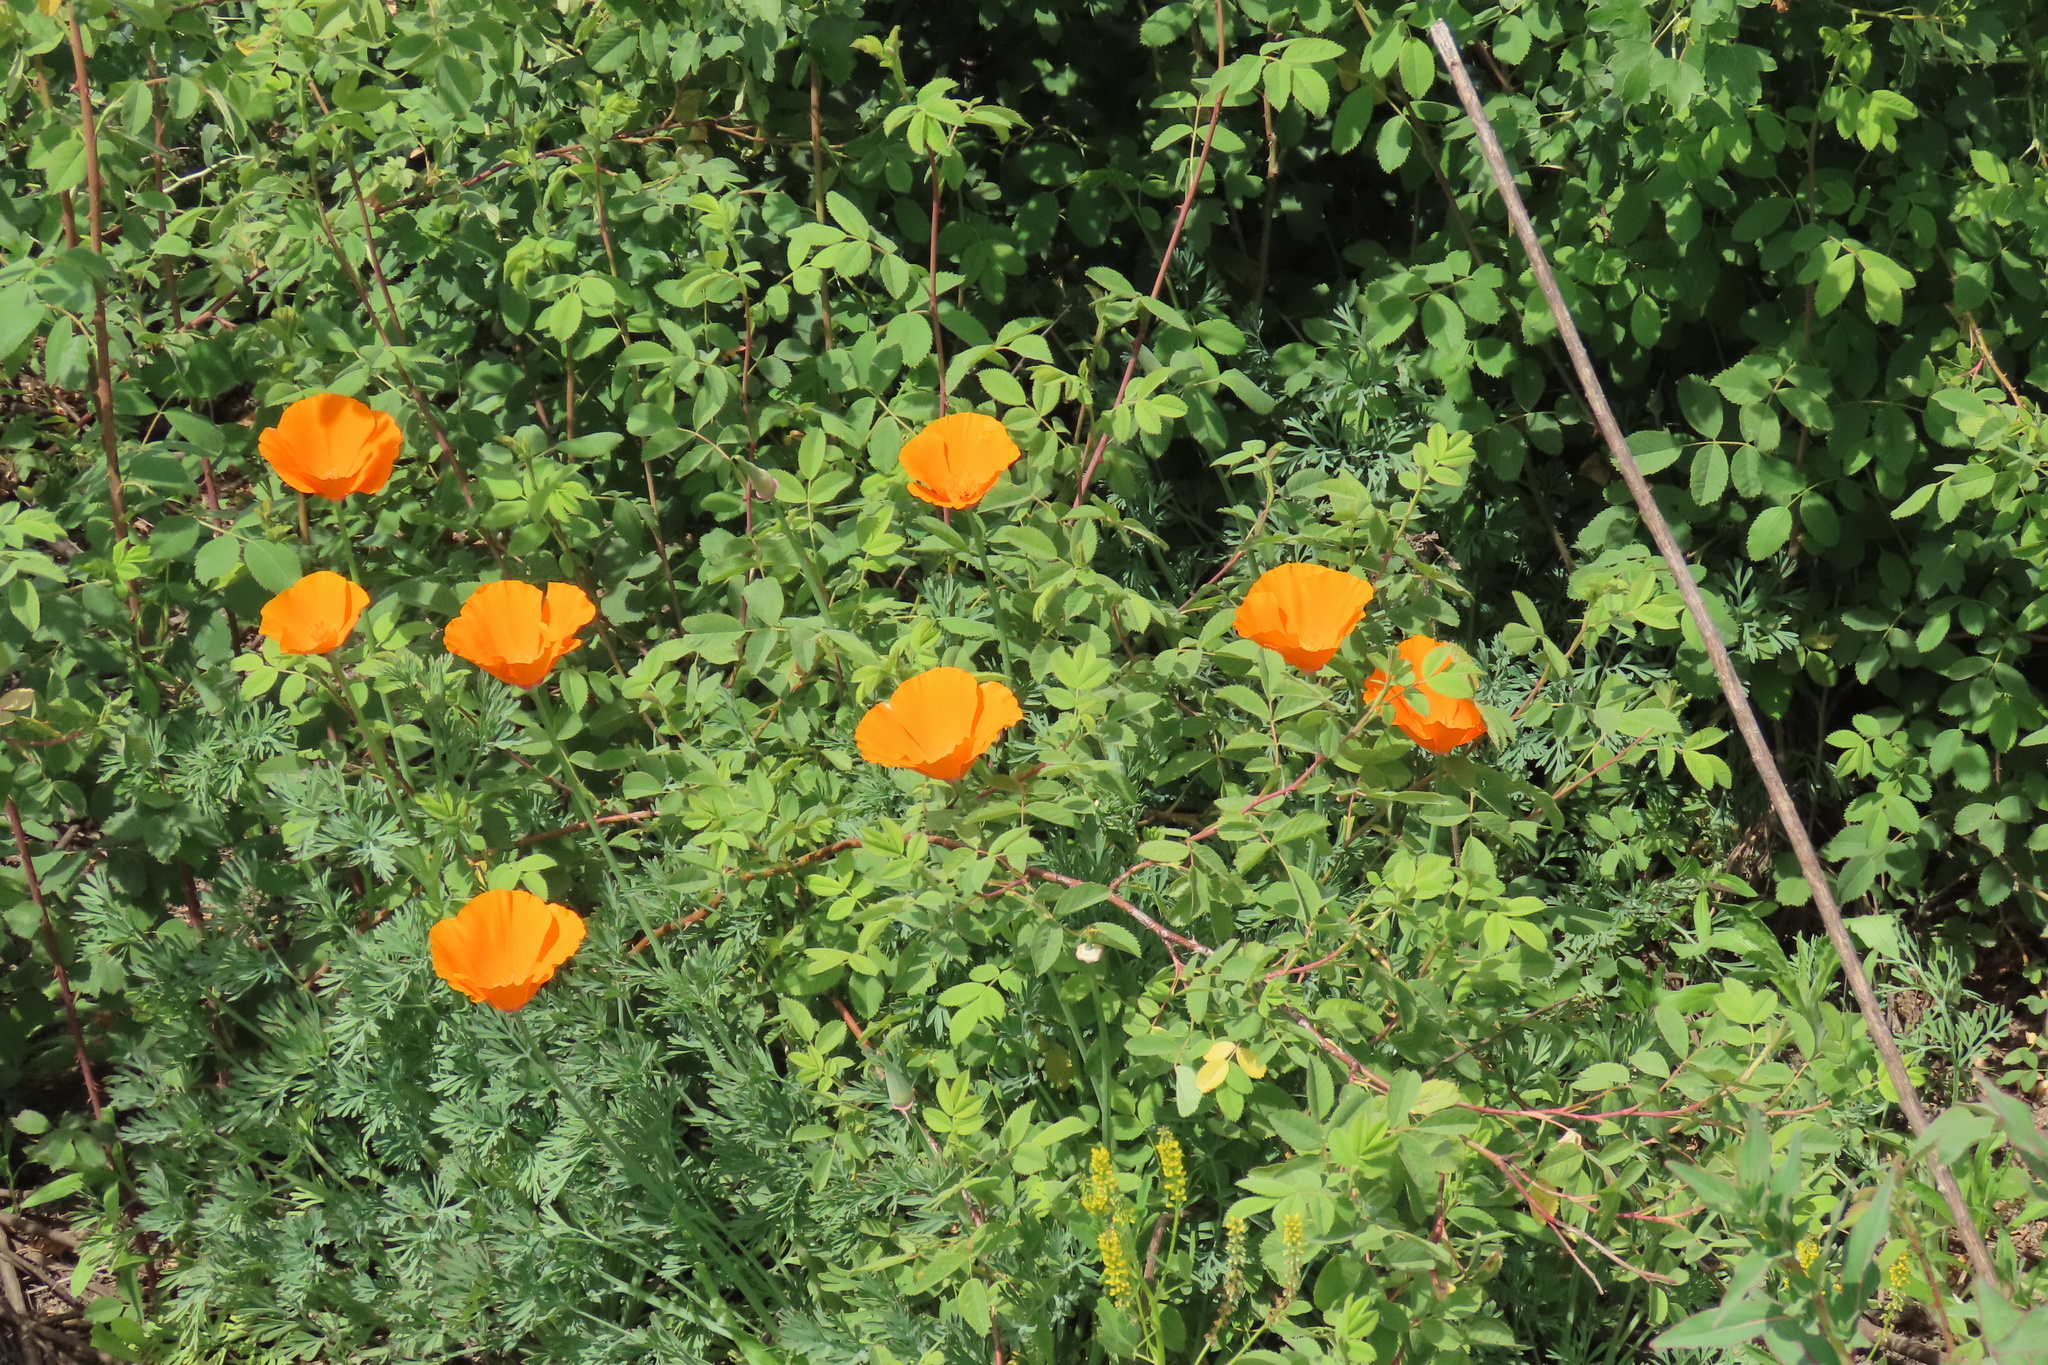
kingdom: Plantae
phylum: Tracheophyta
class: Magnoliopsida
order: Ranunculales
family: Papaveraceae
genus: Eschscholzia
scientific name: Eschscholzia californica
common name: California poppy
